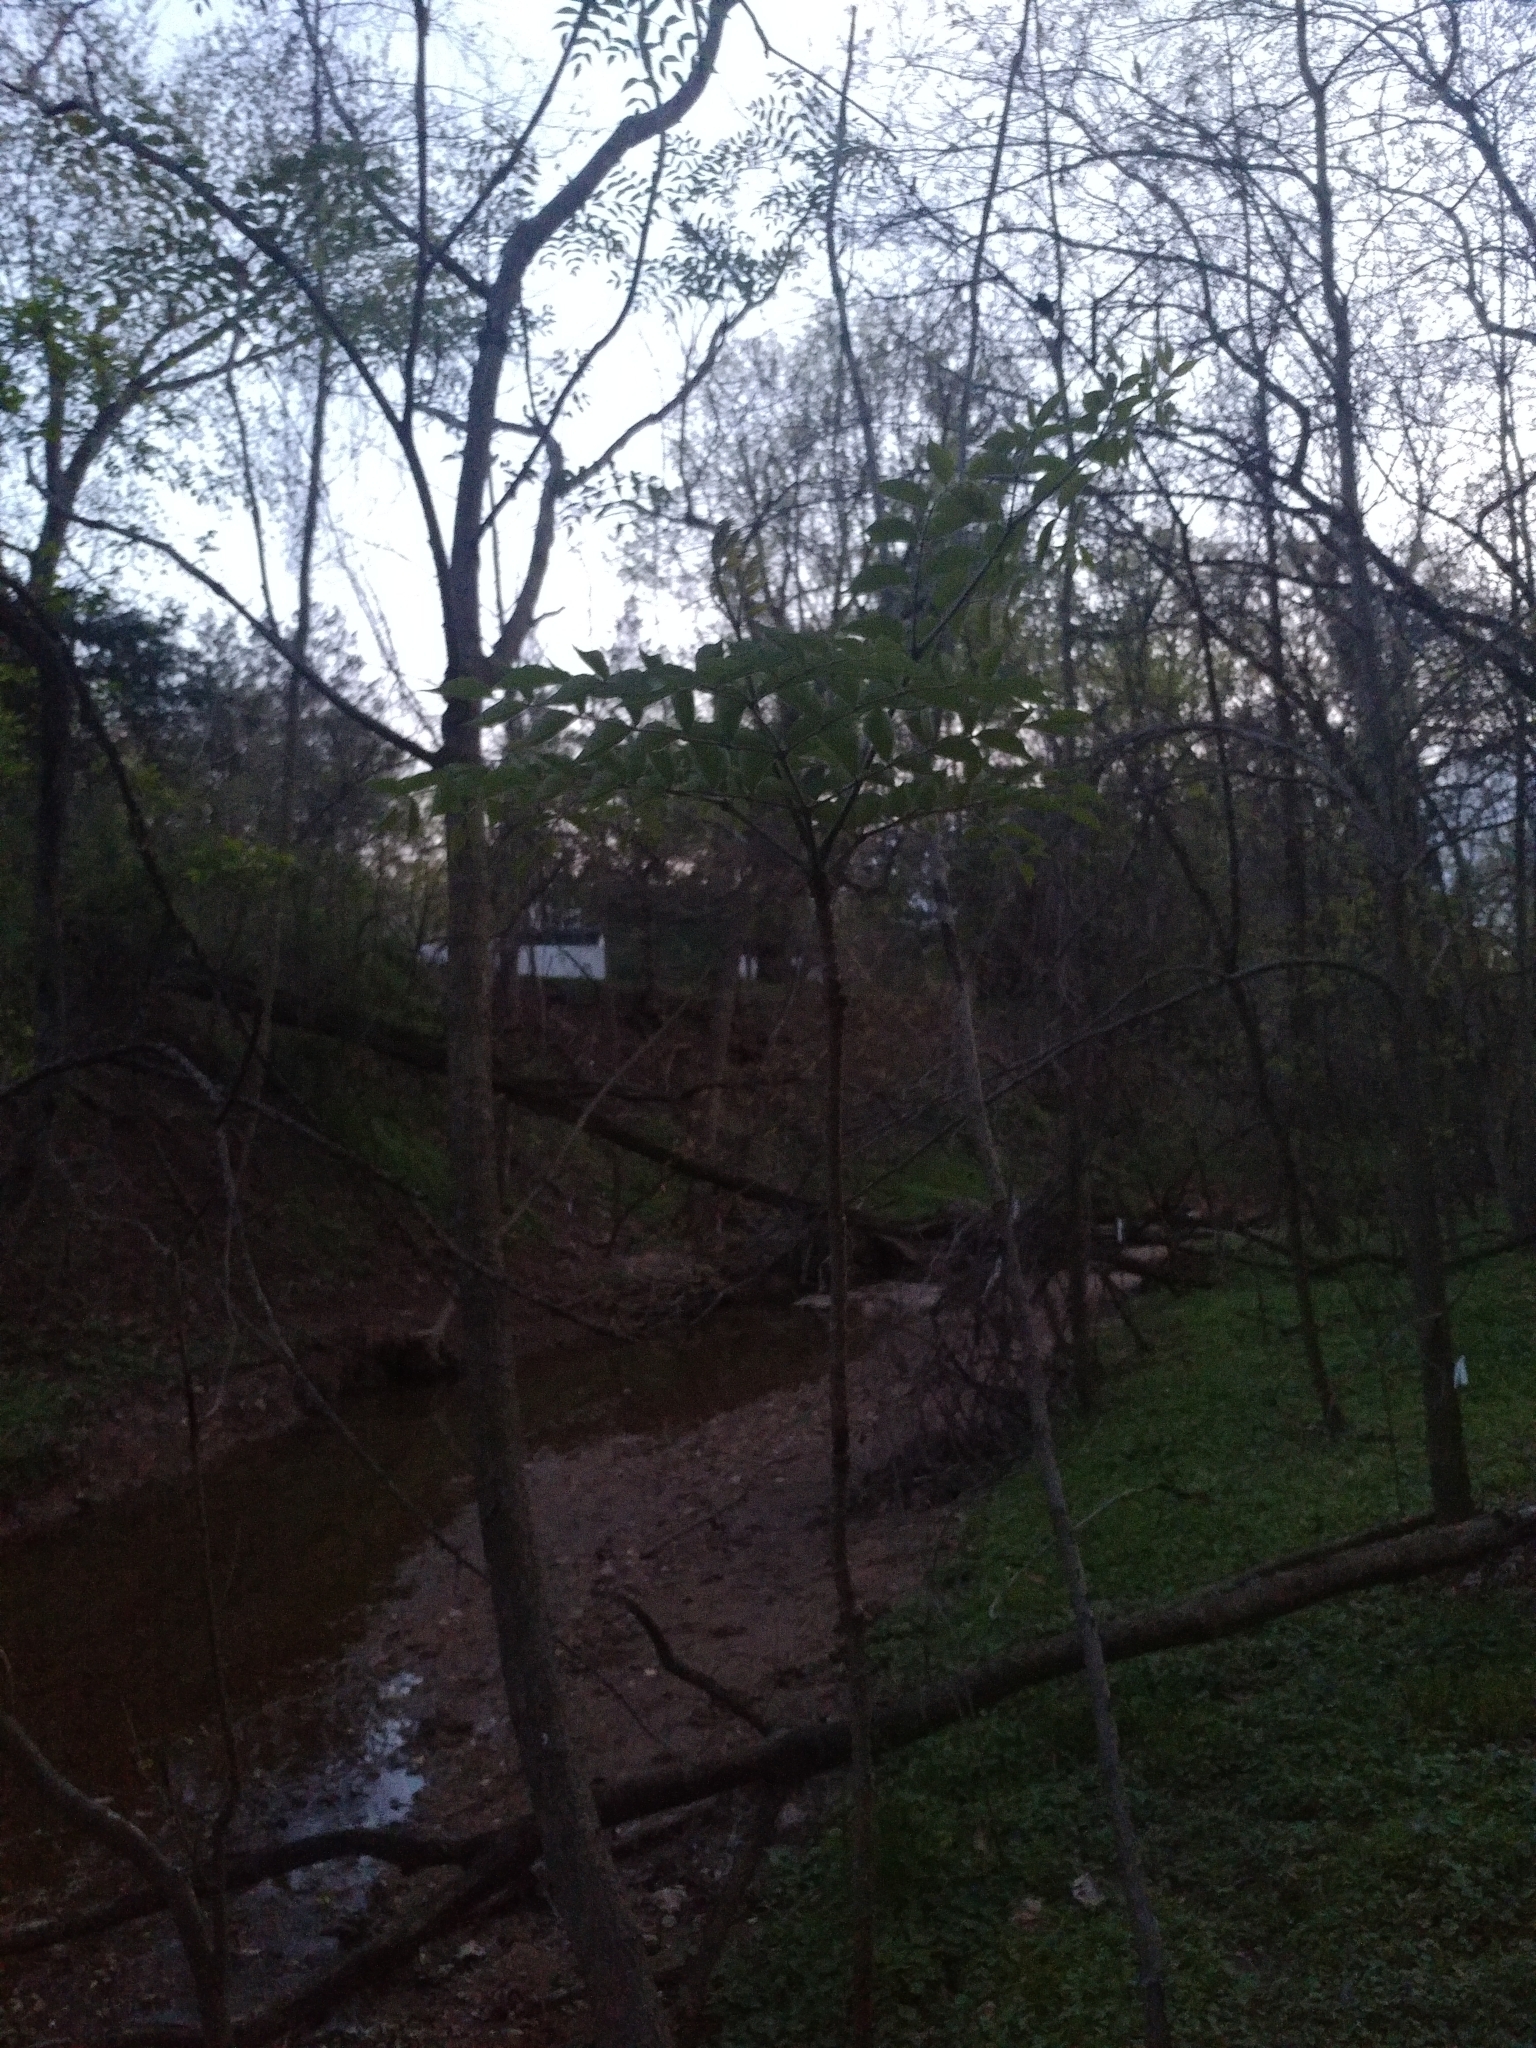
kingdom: Plantae
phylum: Tracheophyta
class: Magnoliopsida
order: Apiales
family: Araliaceae
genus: Aralia
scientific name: Aralia elata
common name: Japanese angelica-tree
